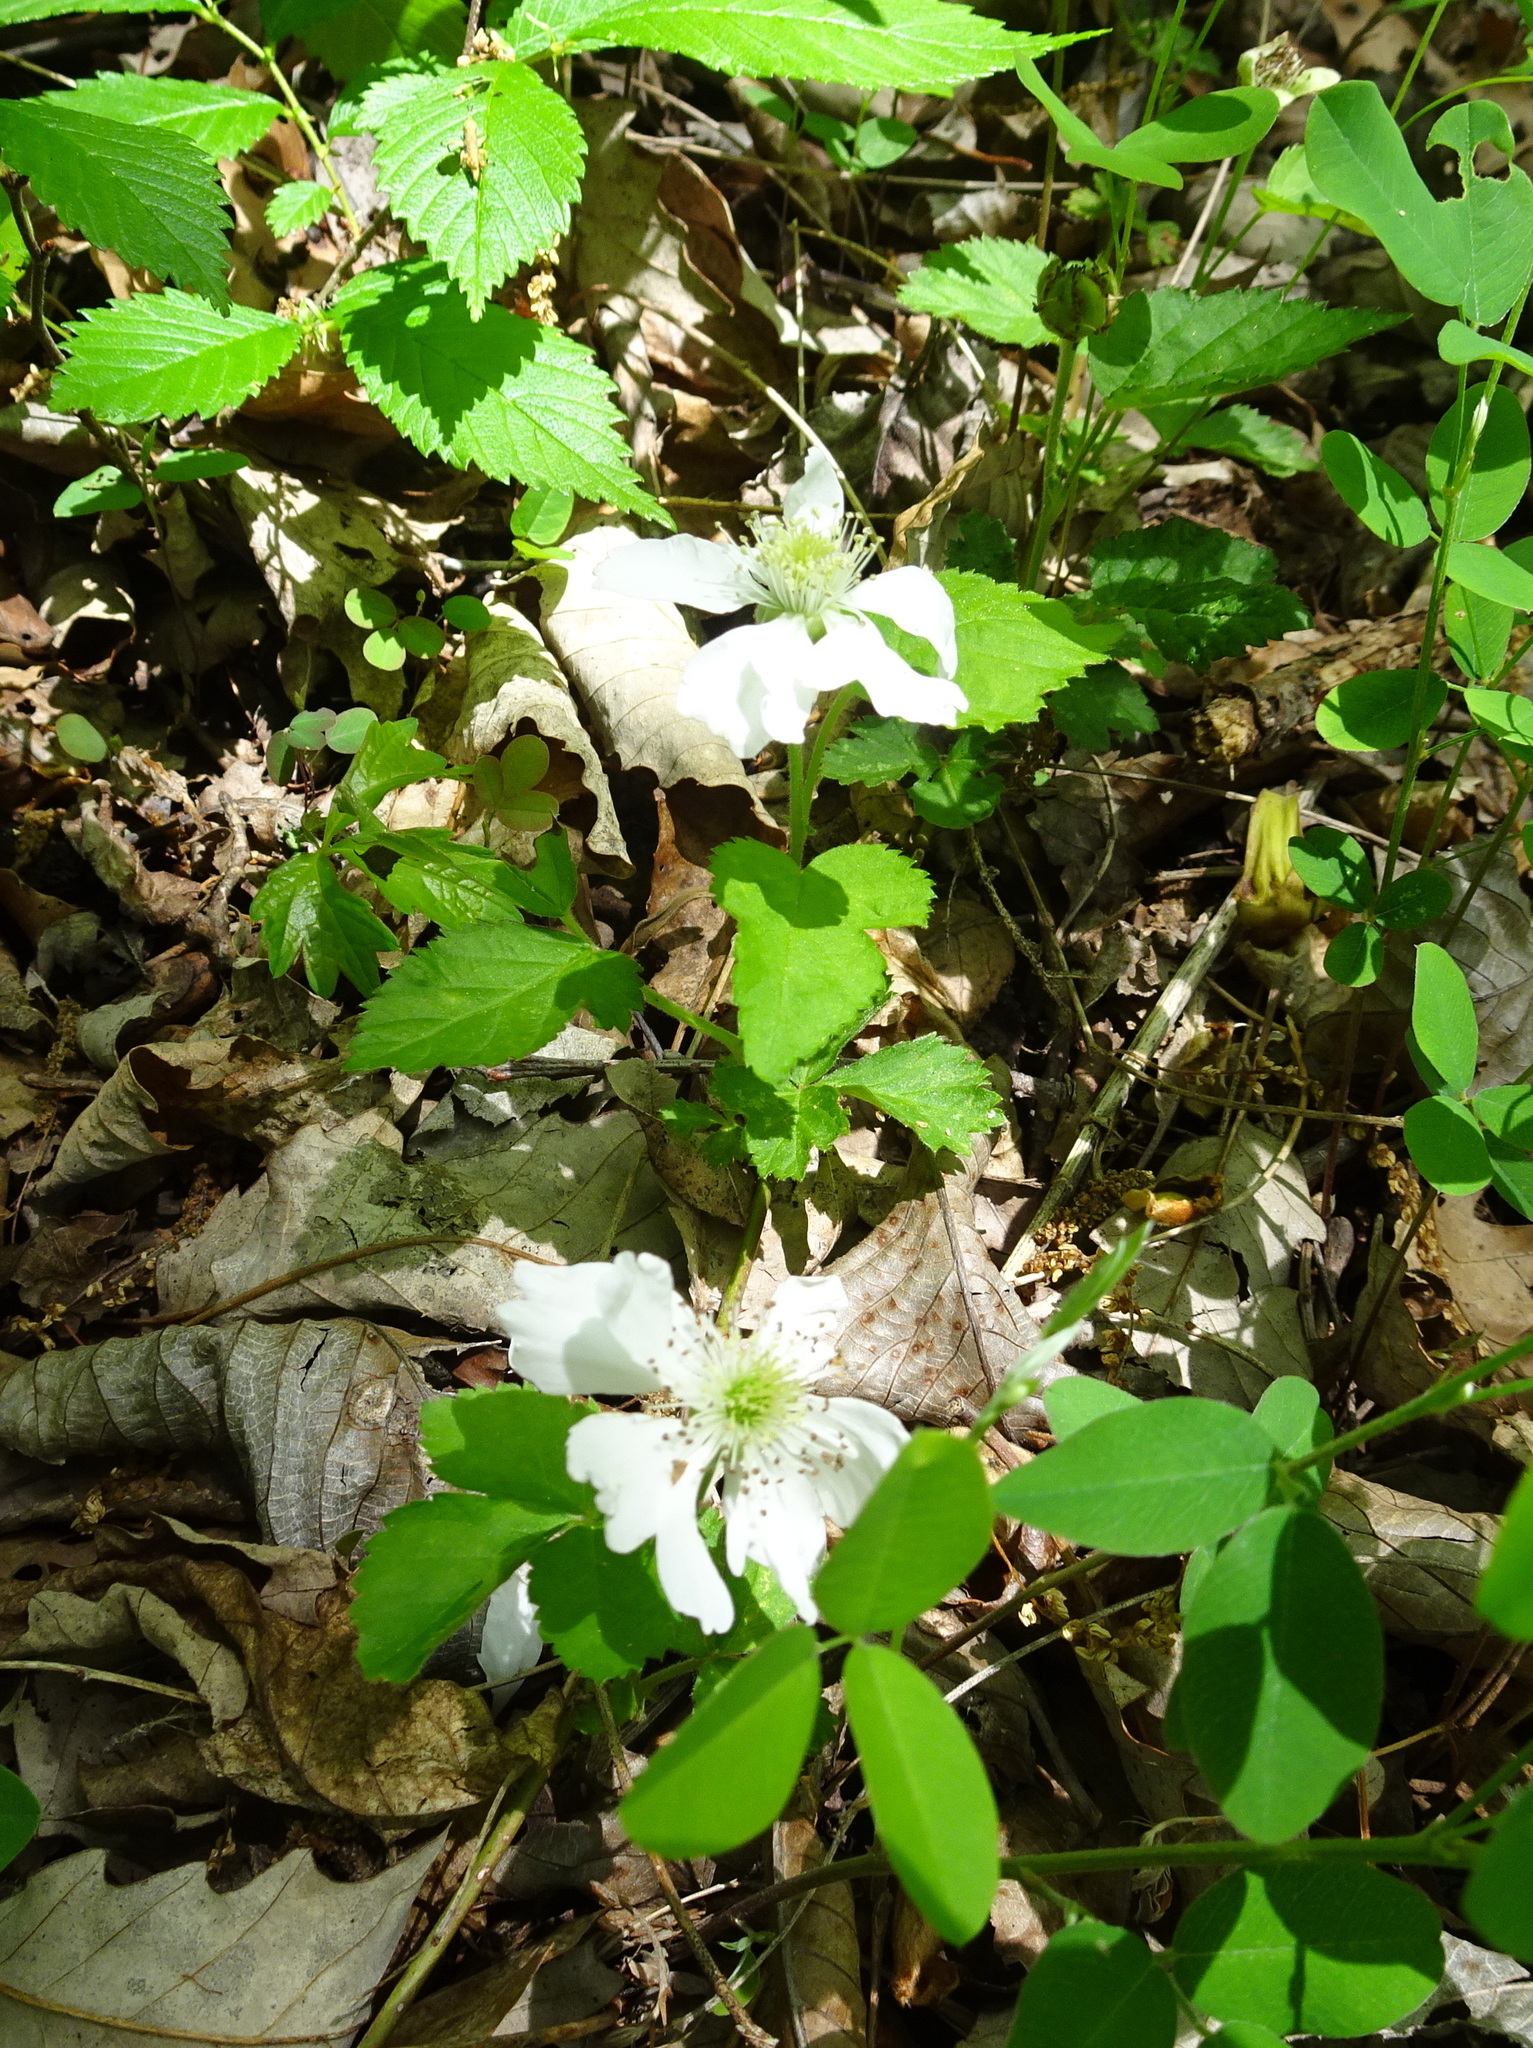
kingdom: Plantae
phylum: Tracheophyta
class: Magnoliopsida
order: Rosales
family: Rosaceae
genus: Rubus
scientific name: Rubus flagellaris
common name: American dewberry
